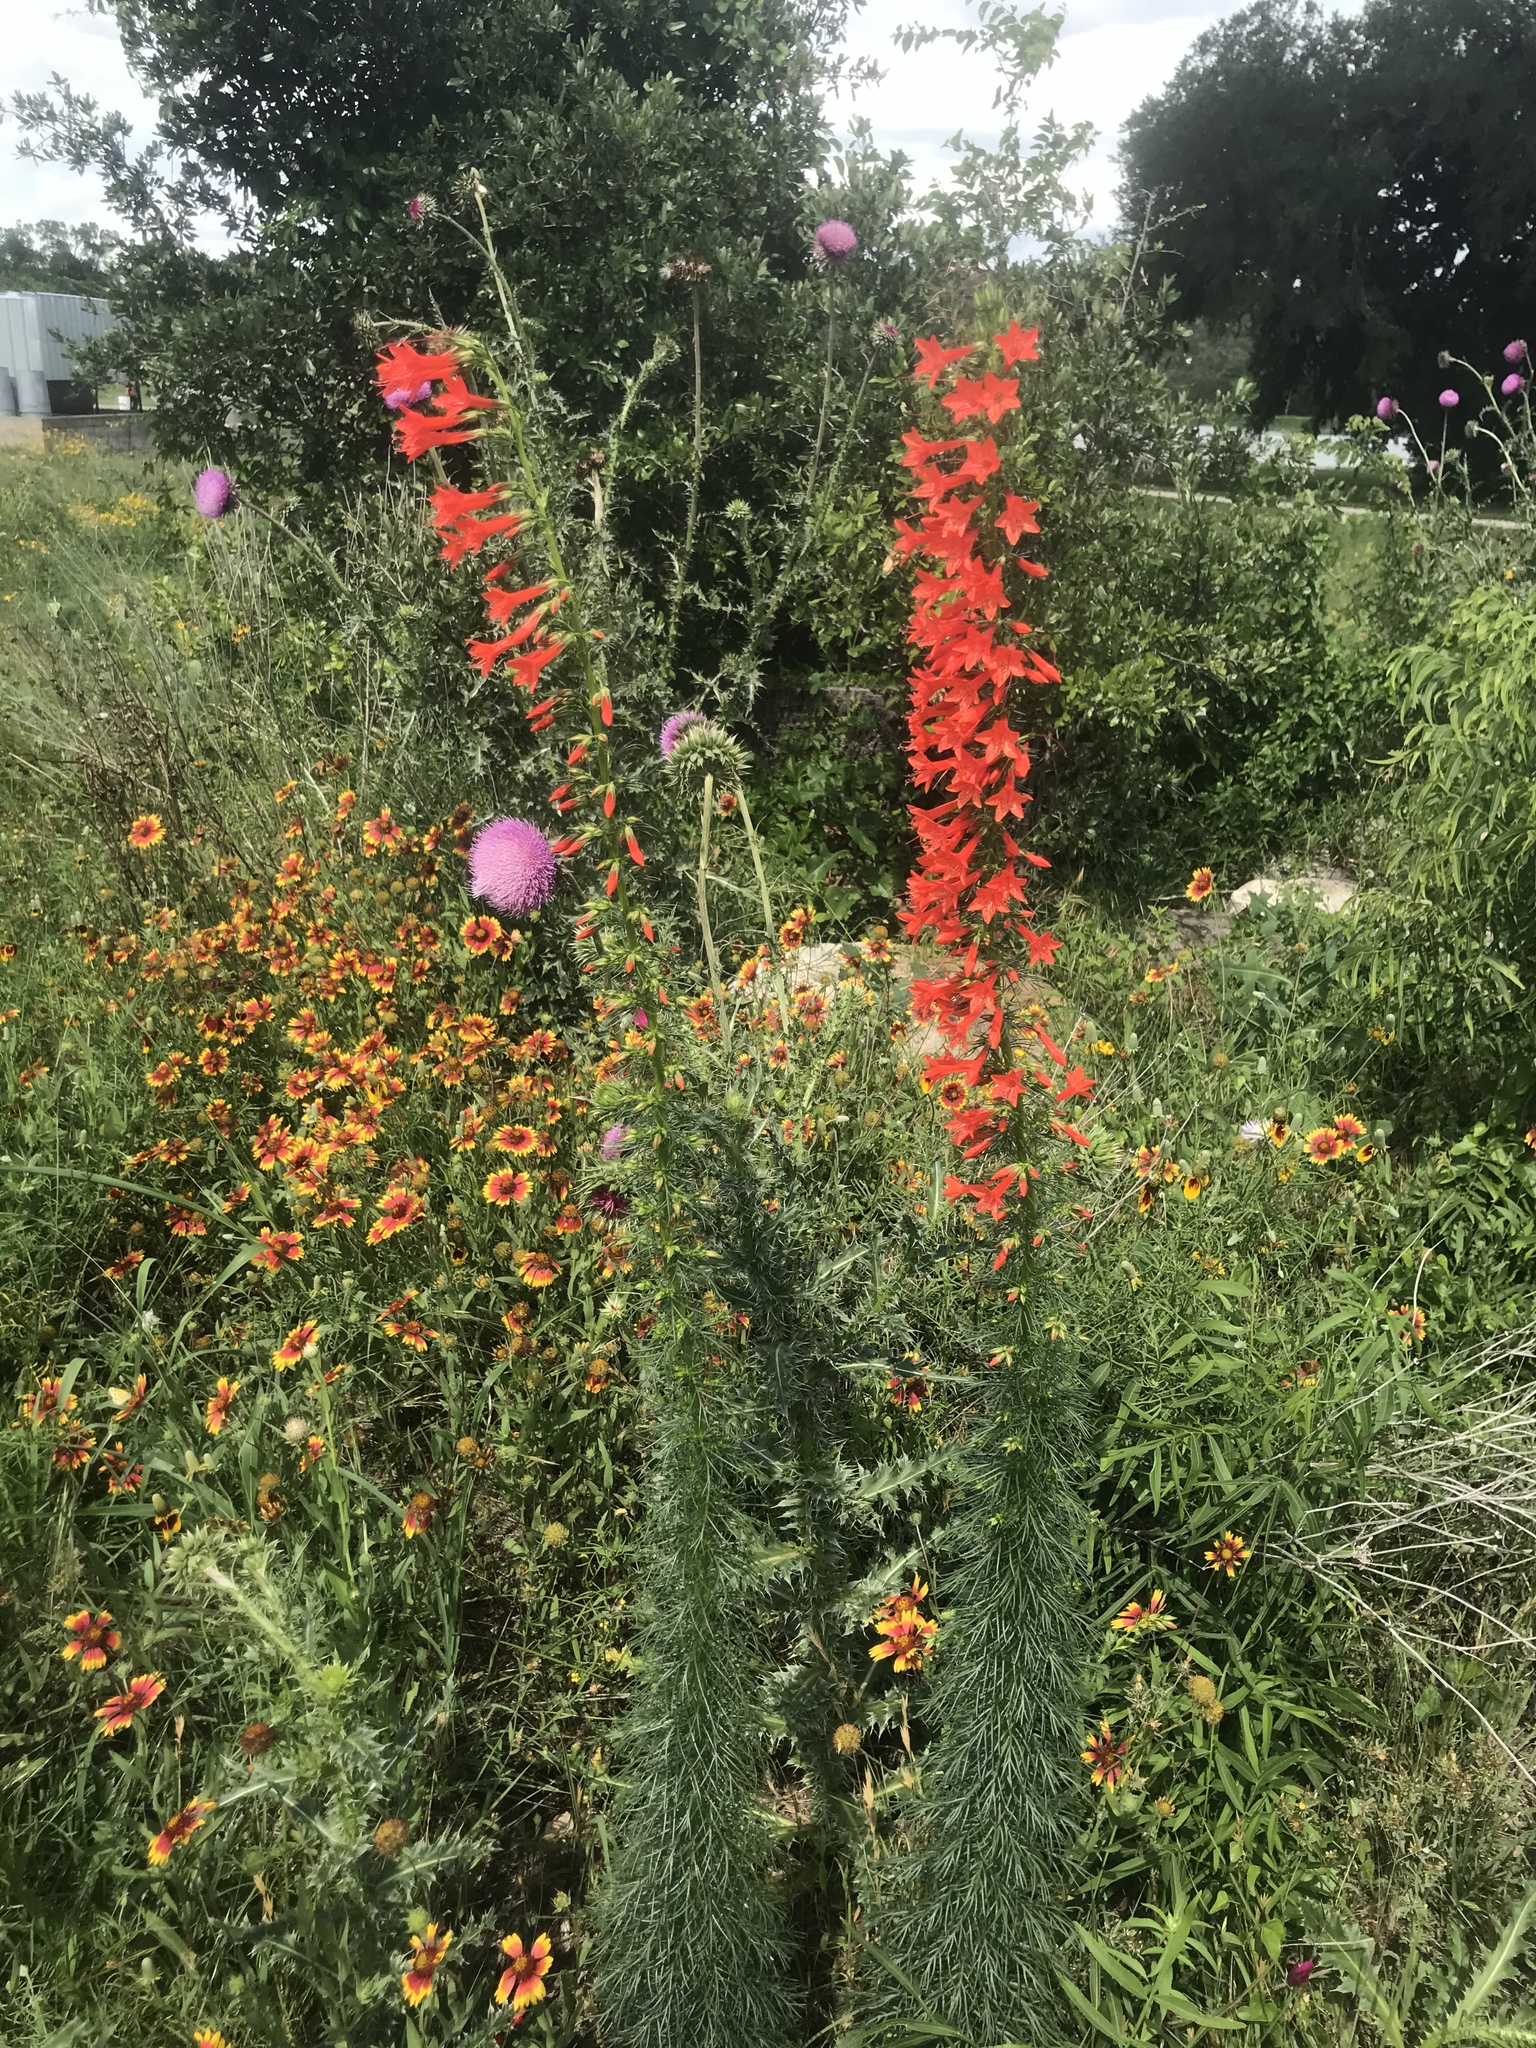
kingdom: Plantae
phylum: Tracheophyta
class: Magnoliopsida
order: Ericales
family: Polemoniaceae
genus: Ipomopsis
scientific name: Ipomopsis rubra
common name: Skyrocket
